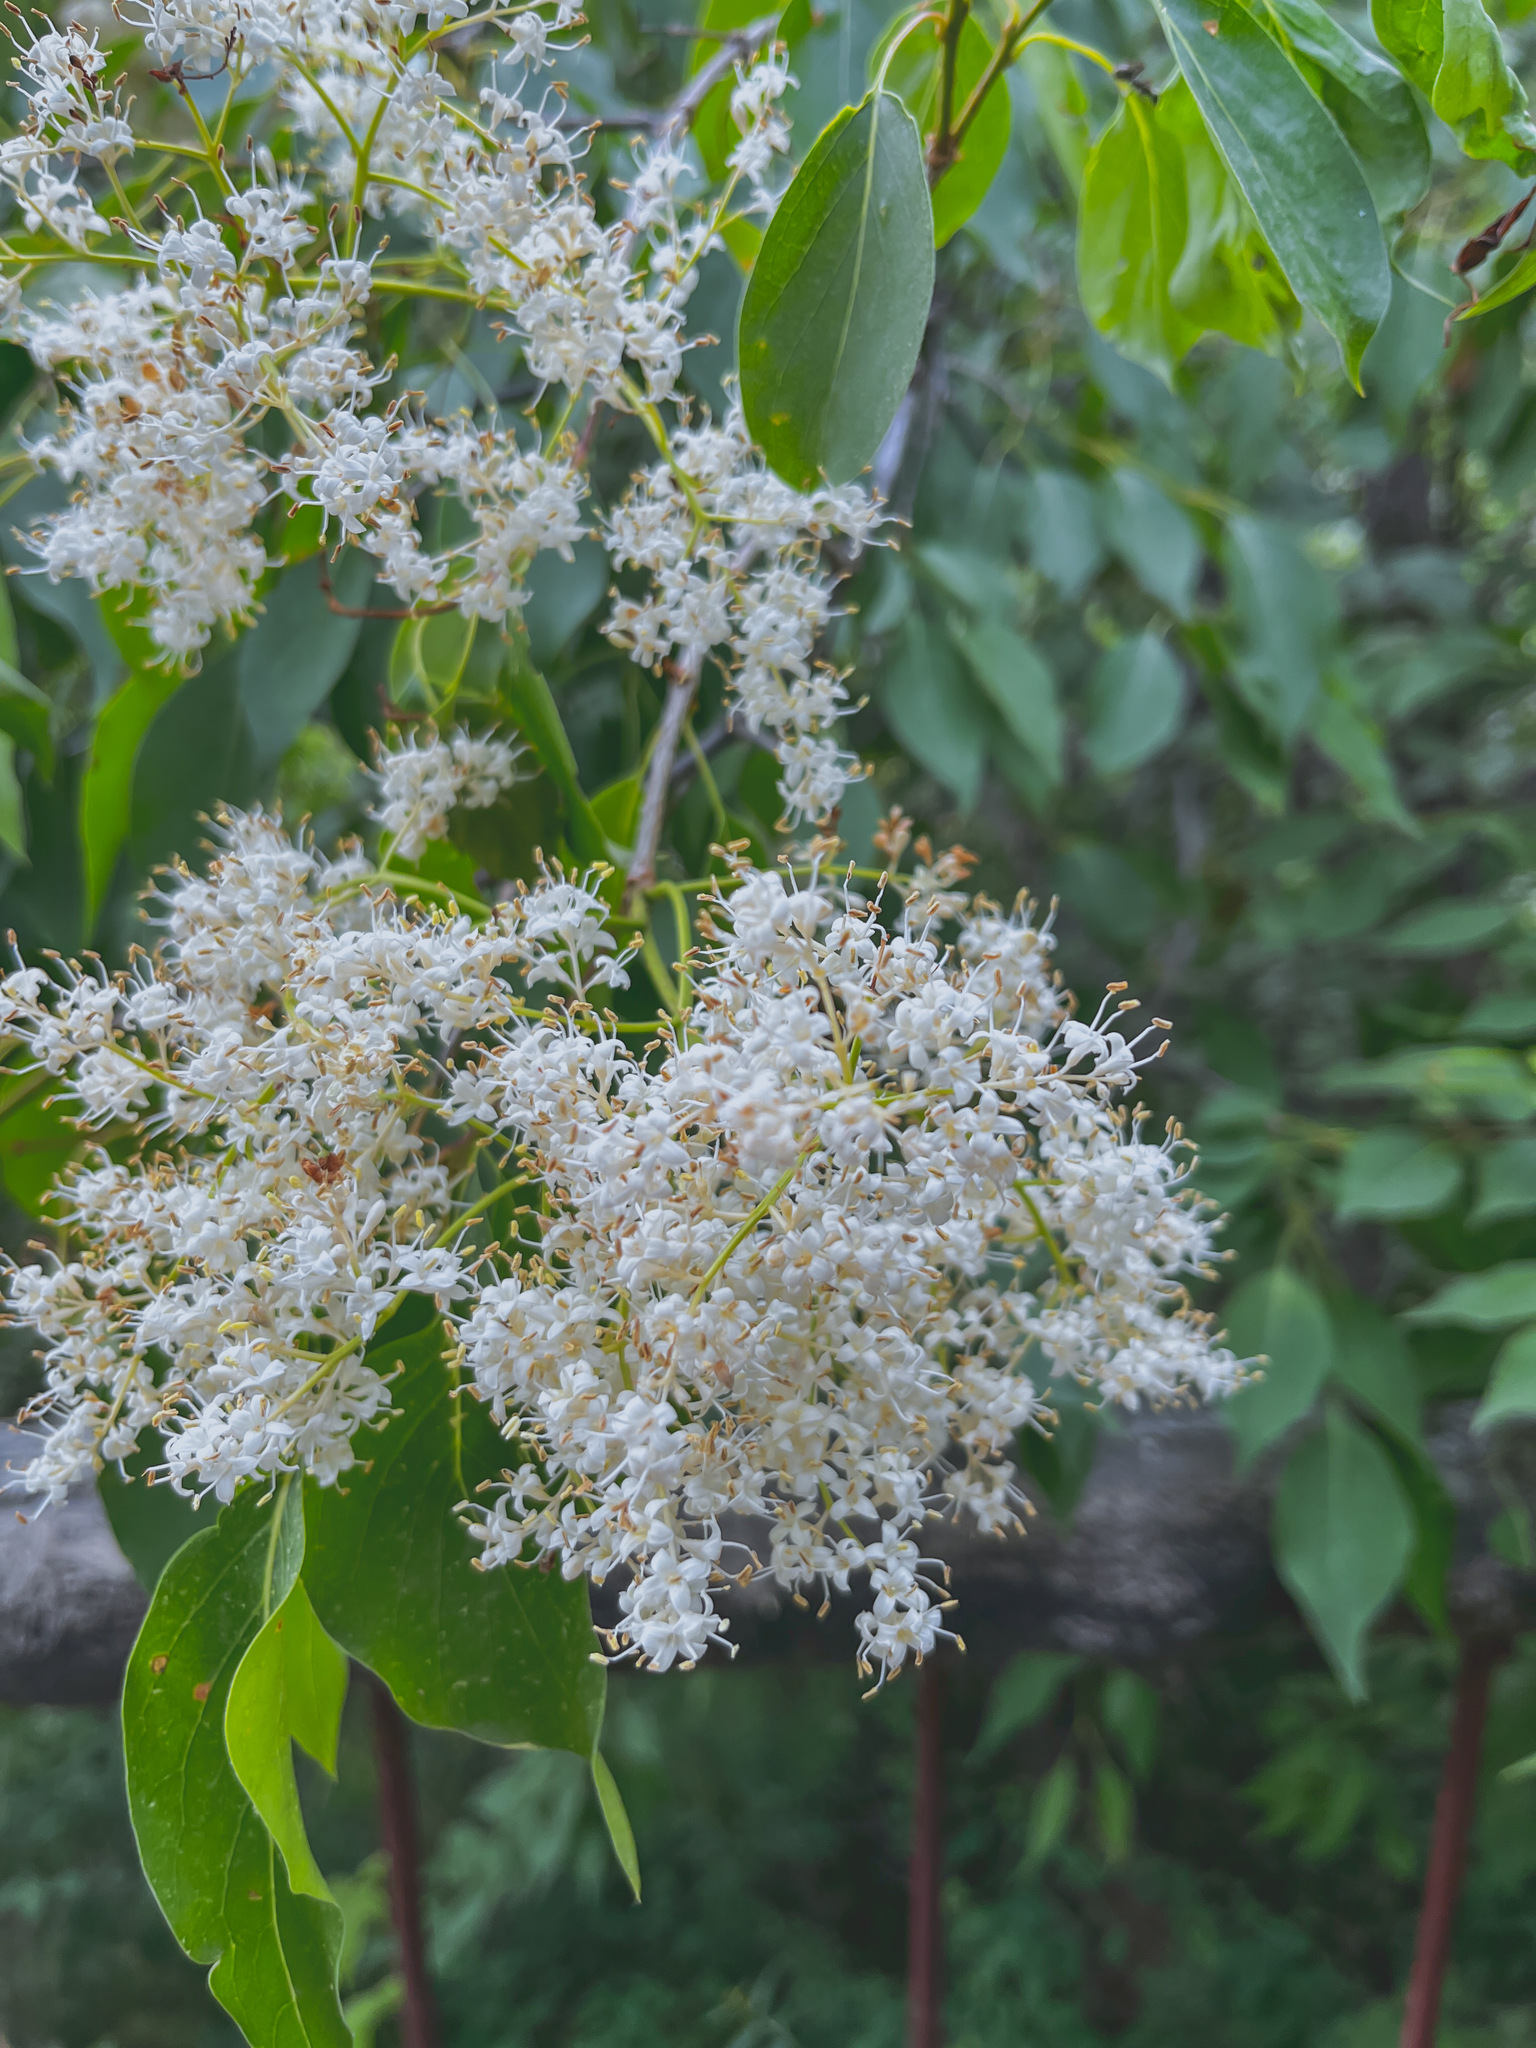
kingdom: Plantae
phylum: Tracheophyta
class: Magnoliopsida
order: Lamiales
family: Oleaceae
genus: Syringa
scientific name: Syringa reticulata
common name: Japanese tree lilac
